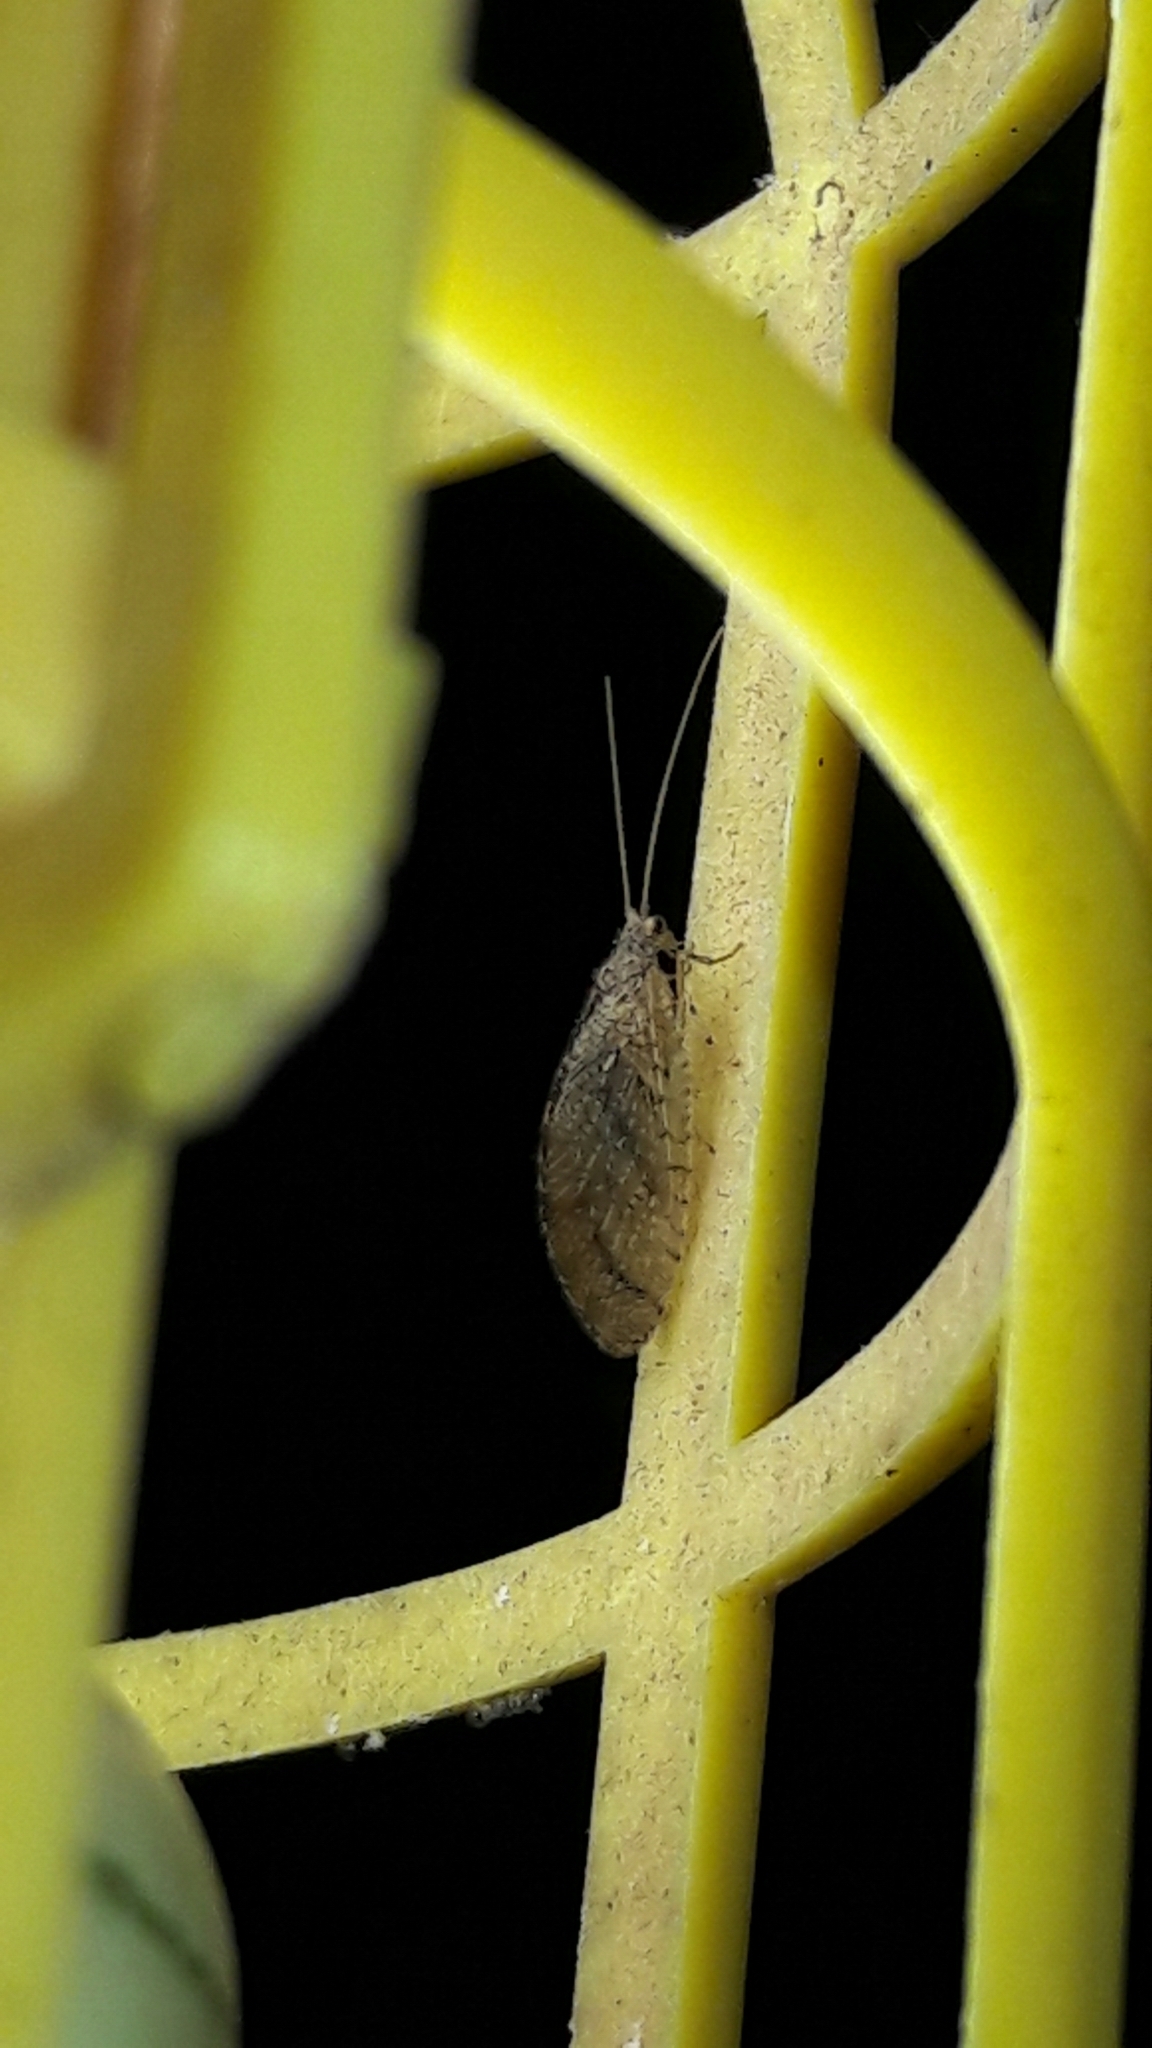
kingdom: Animalia
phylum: Arthropoda
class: Insecta
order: Neuroptera
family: Hemerobiidae
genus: Nusalala
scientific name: Nusalala tessellata
